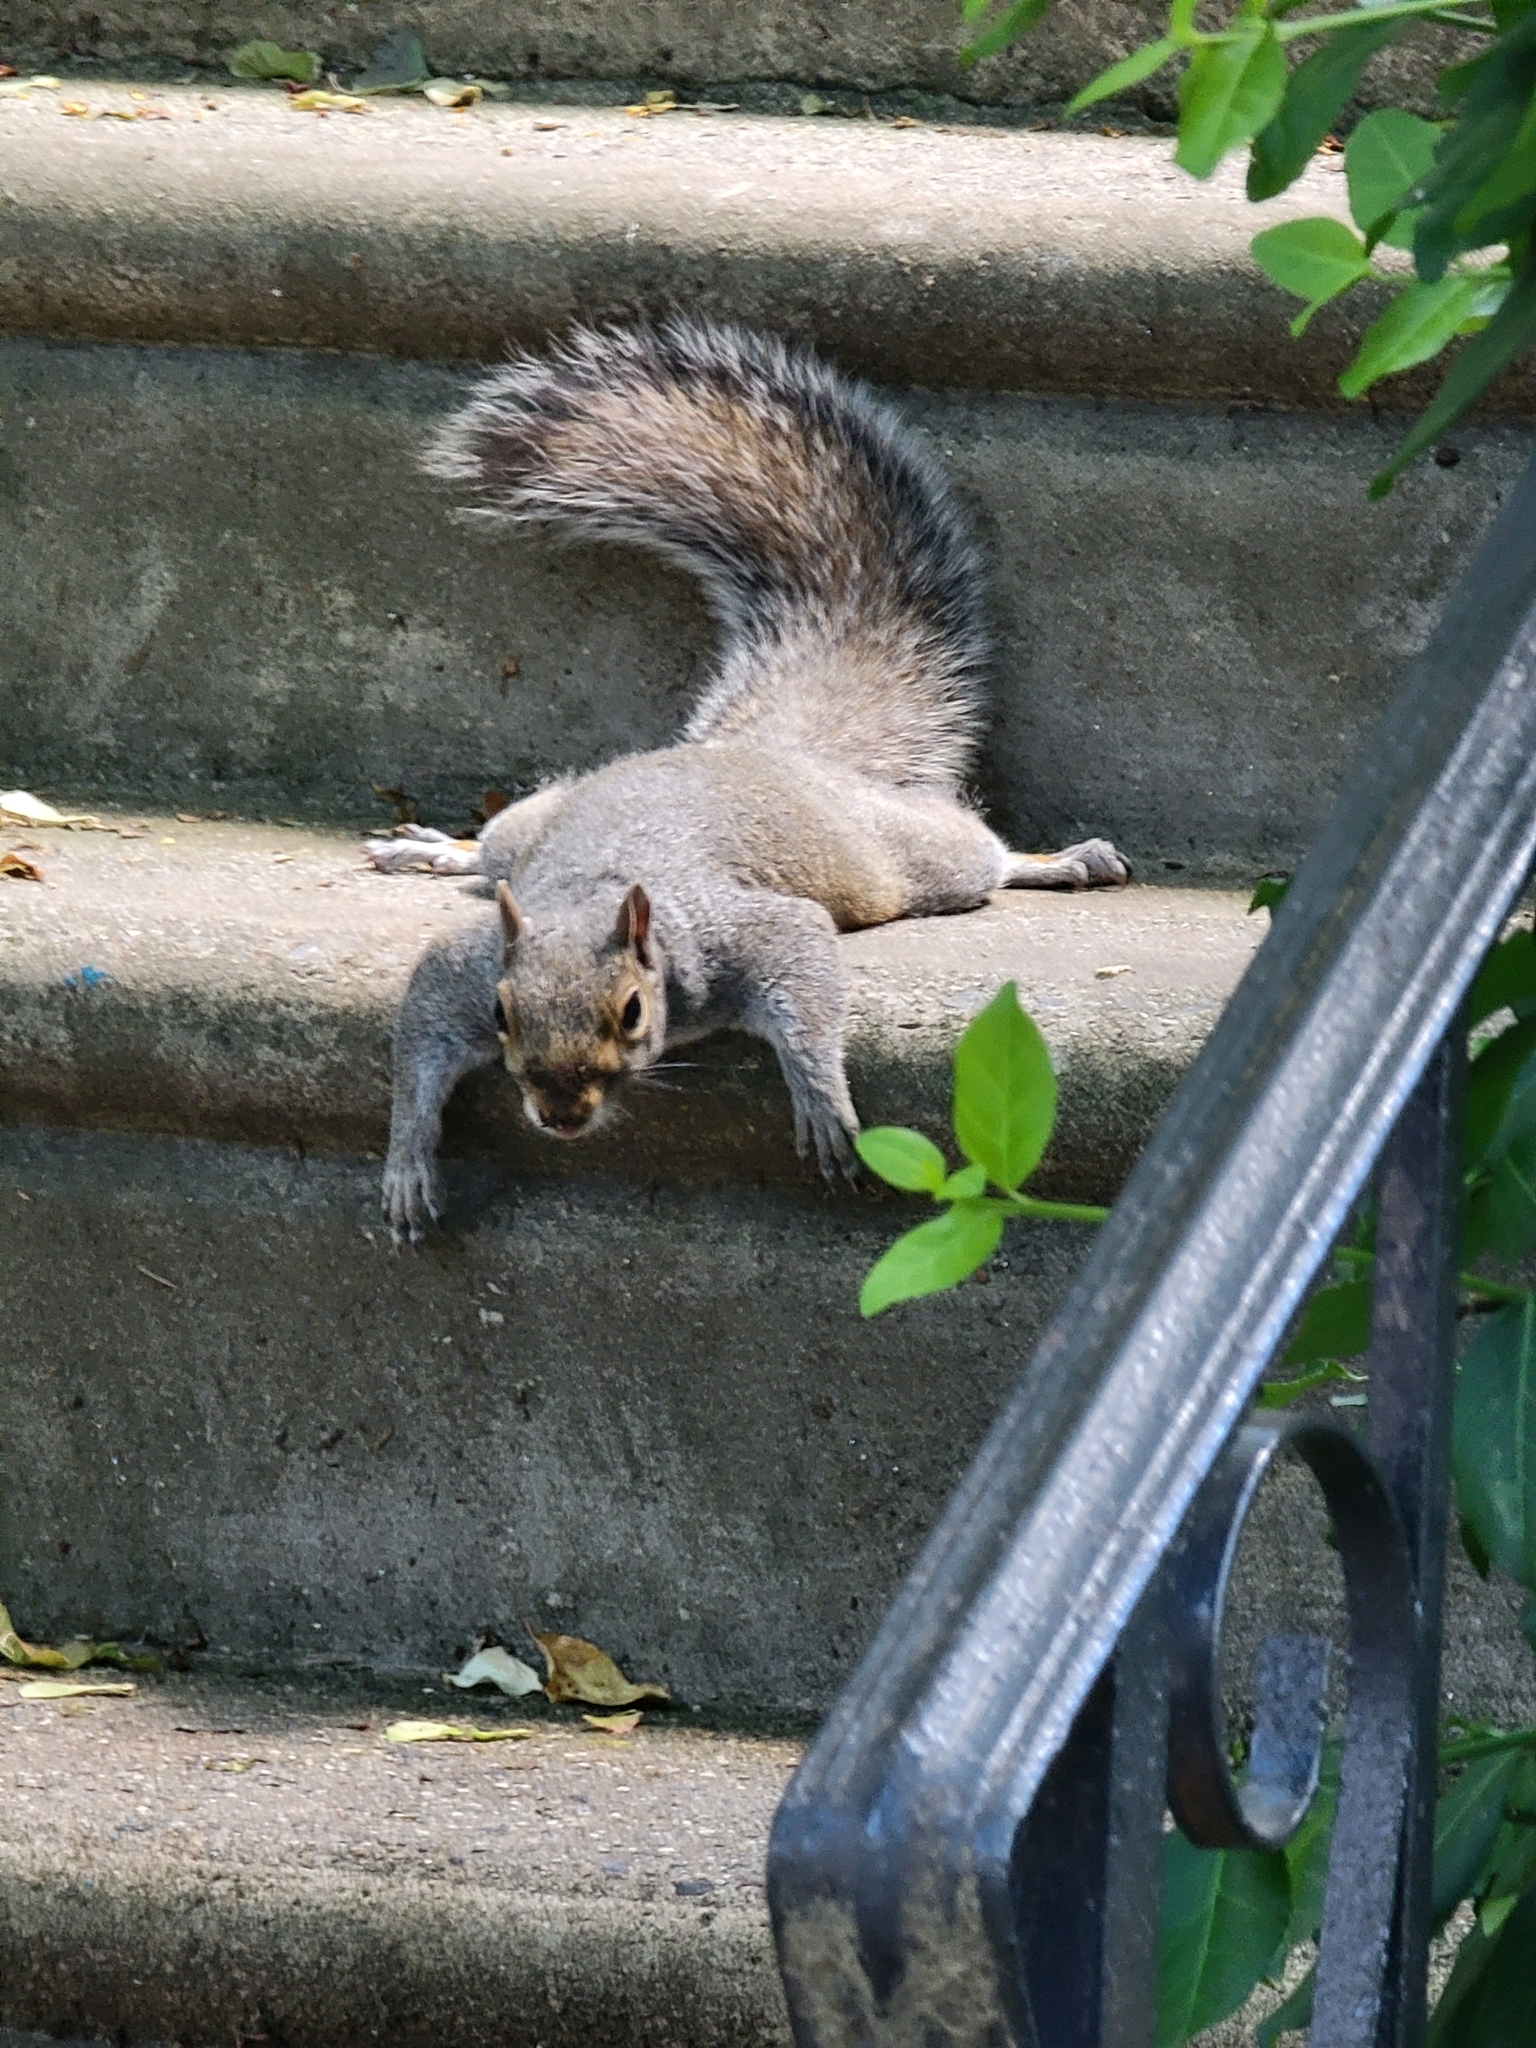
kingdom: Animalia
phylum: Chordata
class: Mammalia
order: Rodentia
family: Sciuridae
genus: Sciurus
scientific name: Sciurus carolinensis
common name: Eastern gray squirrel
